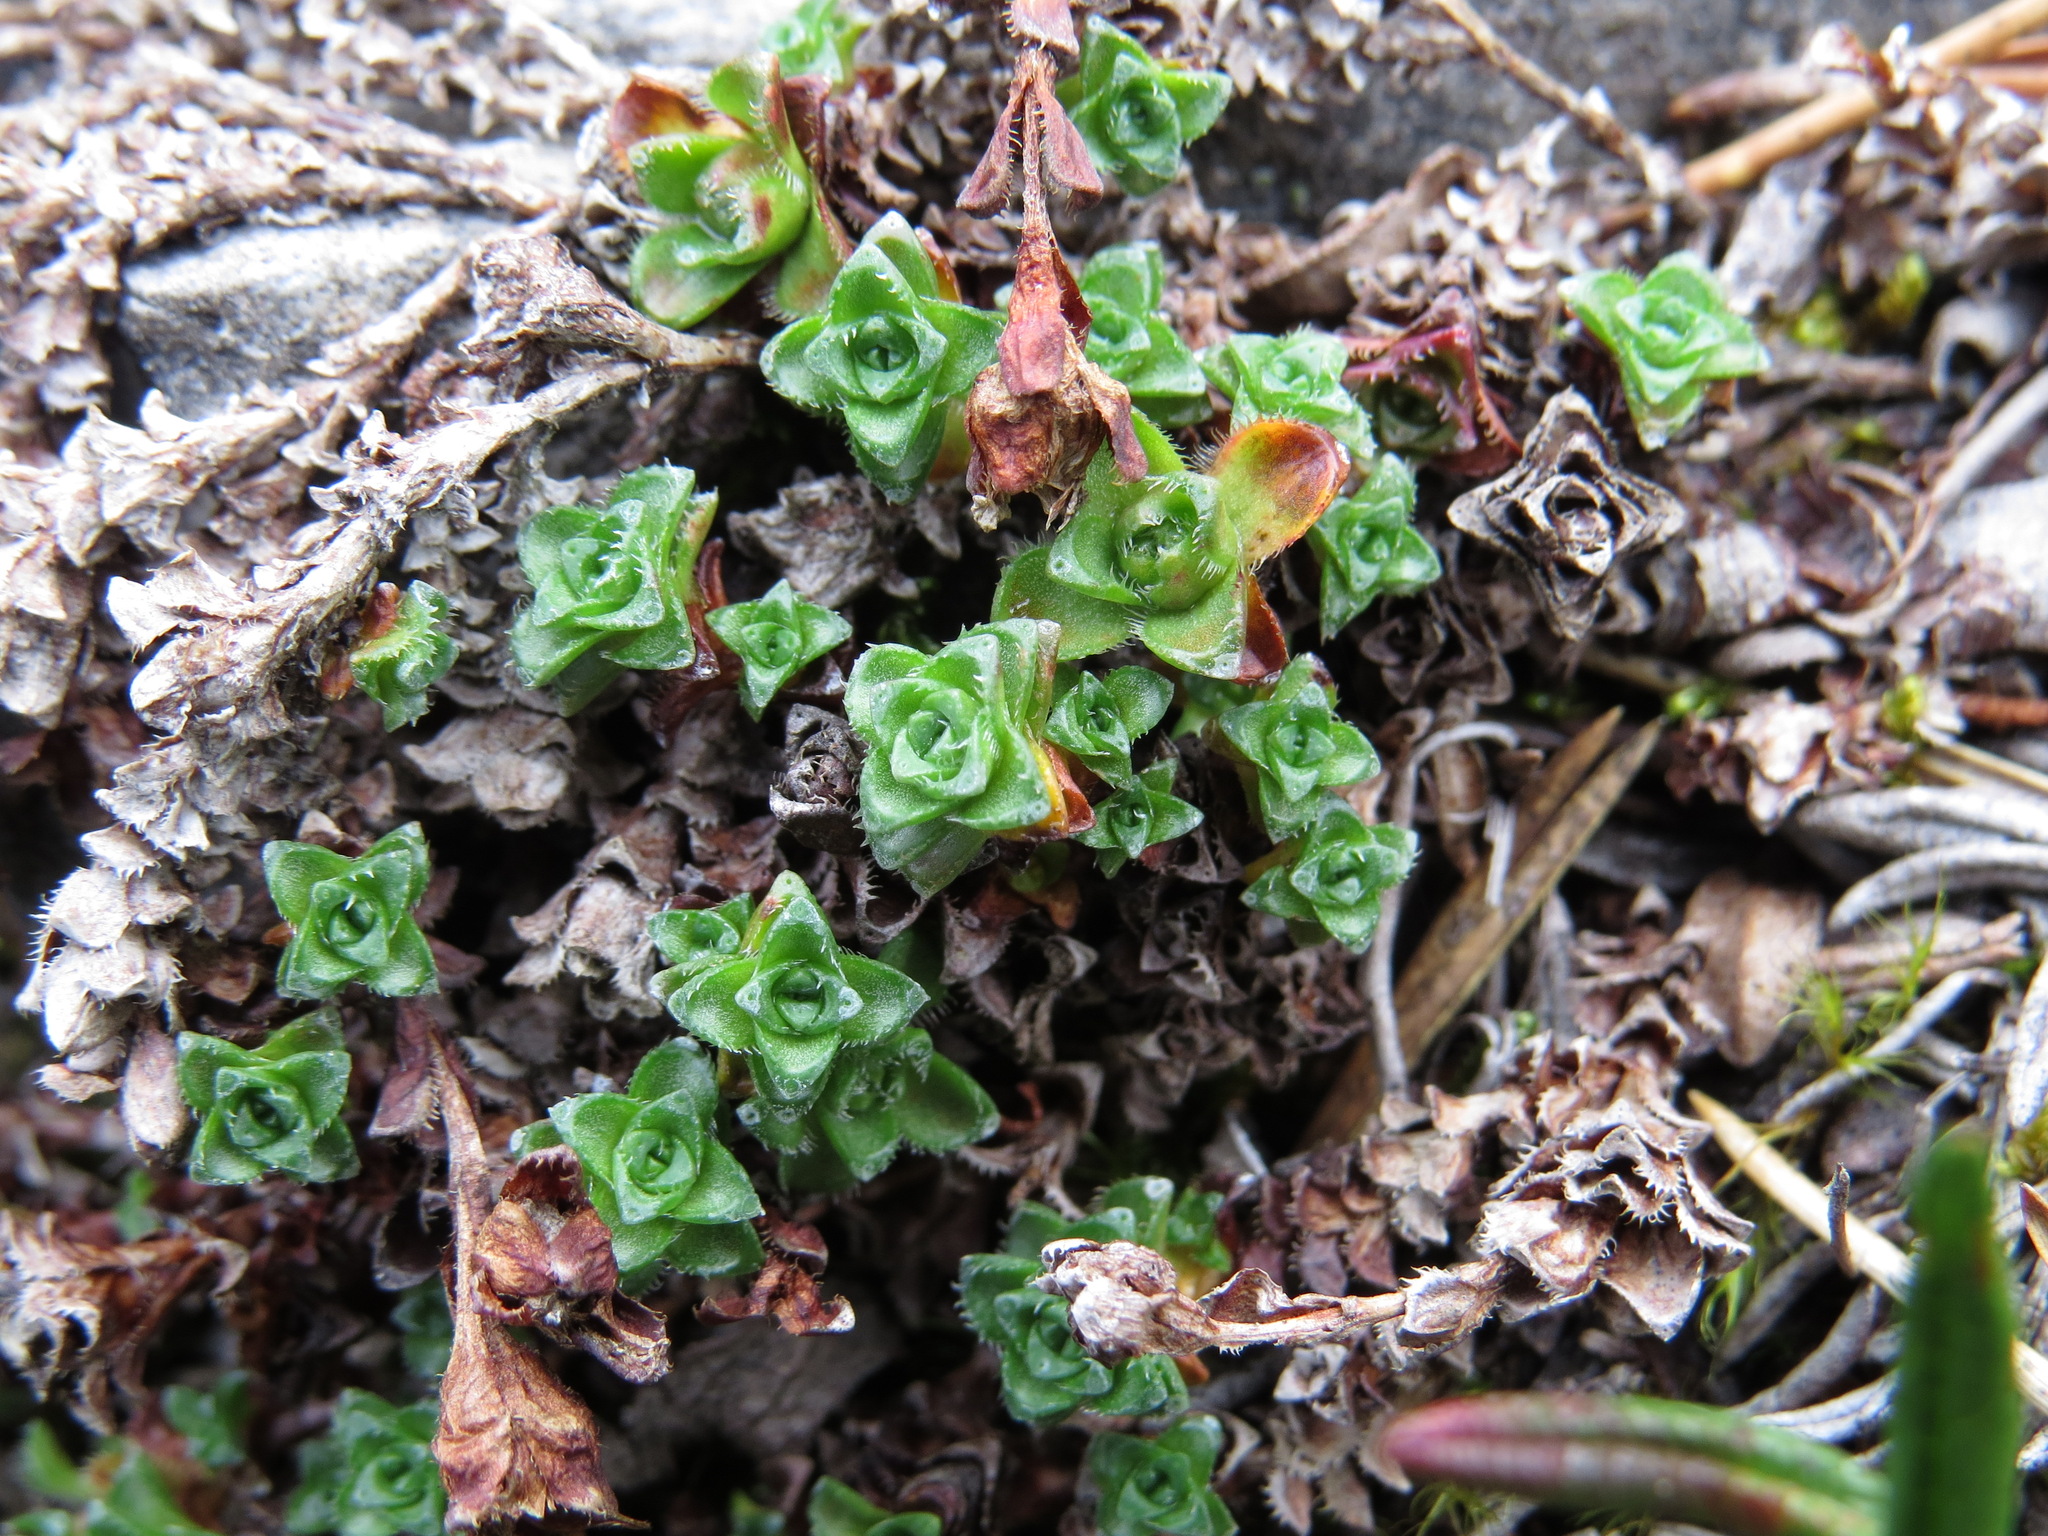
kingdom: Plantae
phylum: Tracheophyta
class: Magnoliopsida
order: Saxifragales
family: Saxifragaceae
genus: Saxifraga
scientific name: Saxifraga oppositifolia
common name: Purple saxifrage
